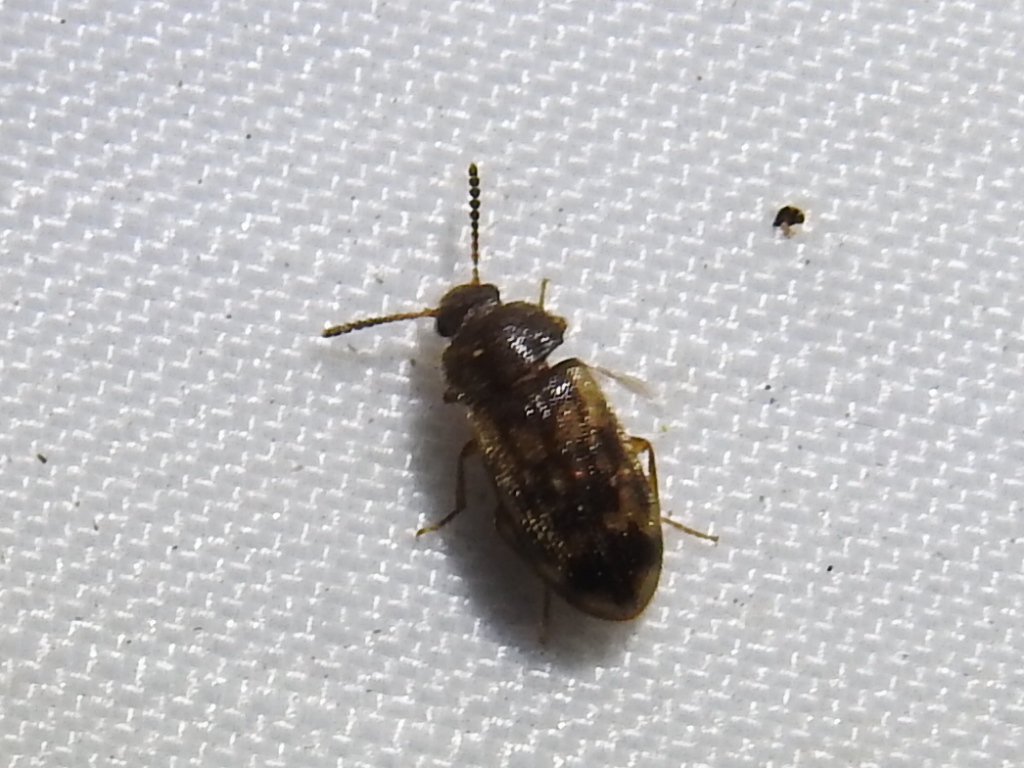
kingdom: Animalia
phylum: Arthropoda
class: Insecta
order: Coleoptera
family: Mycetophagidae
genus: Mycetophagus
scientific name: Mycetophagus pluripunctatus
